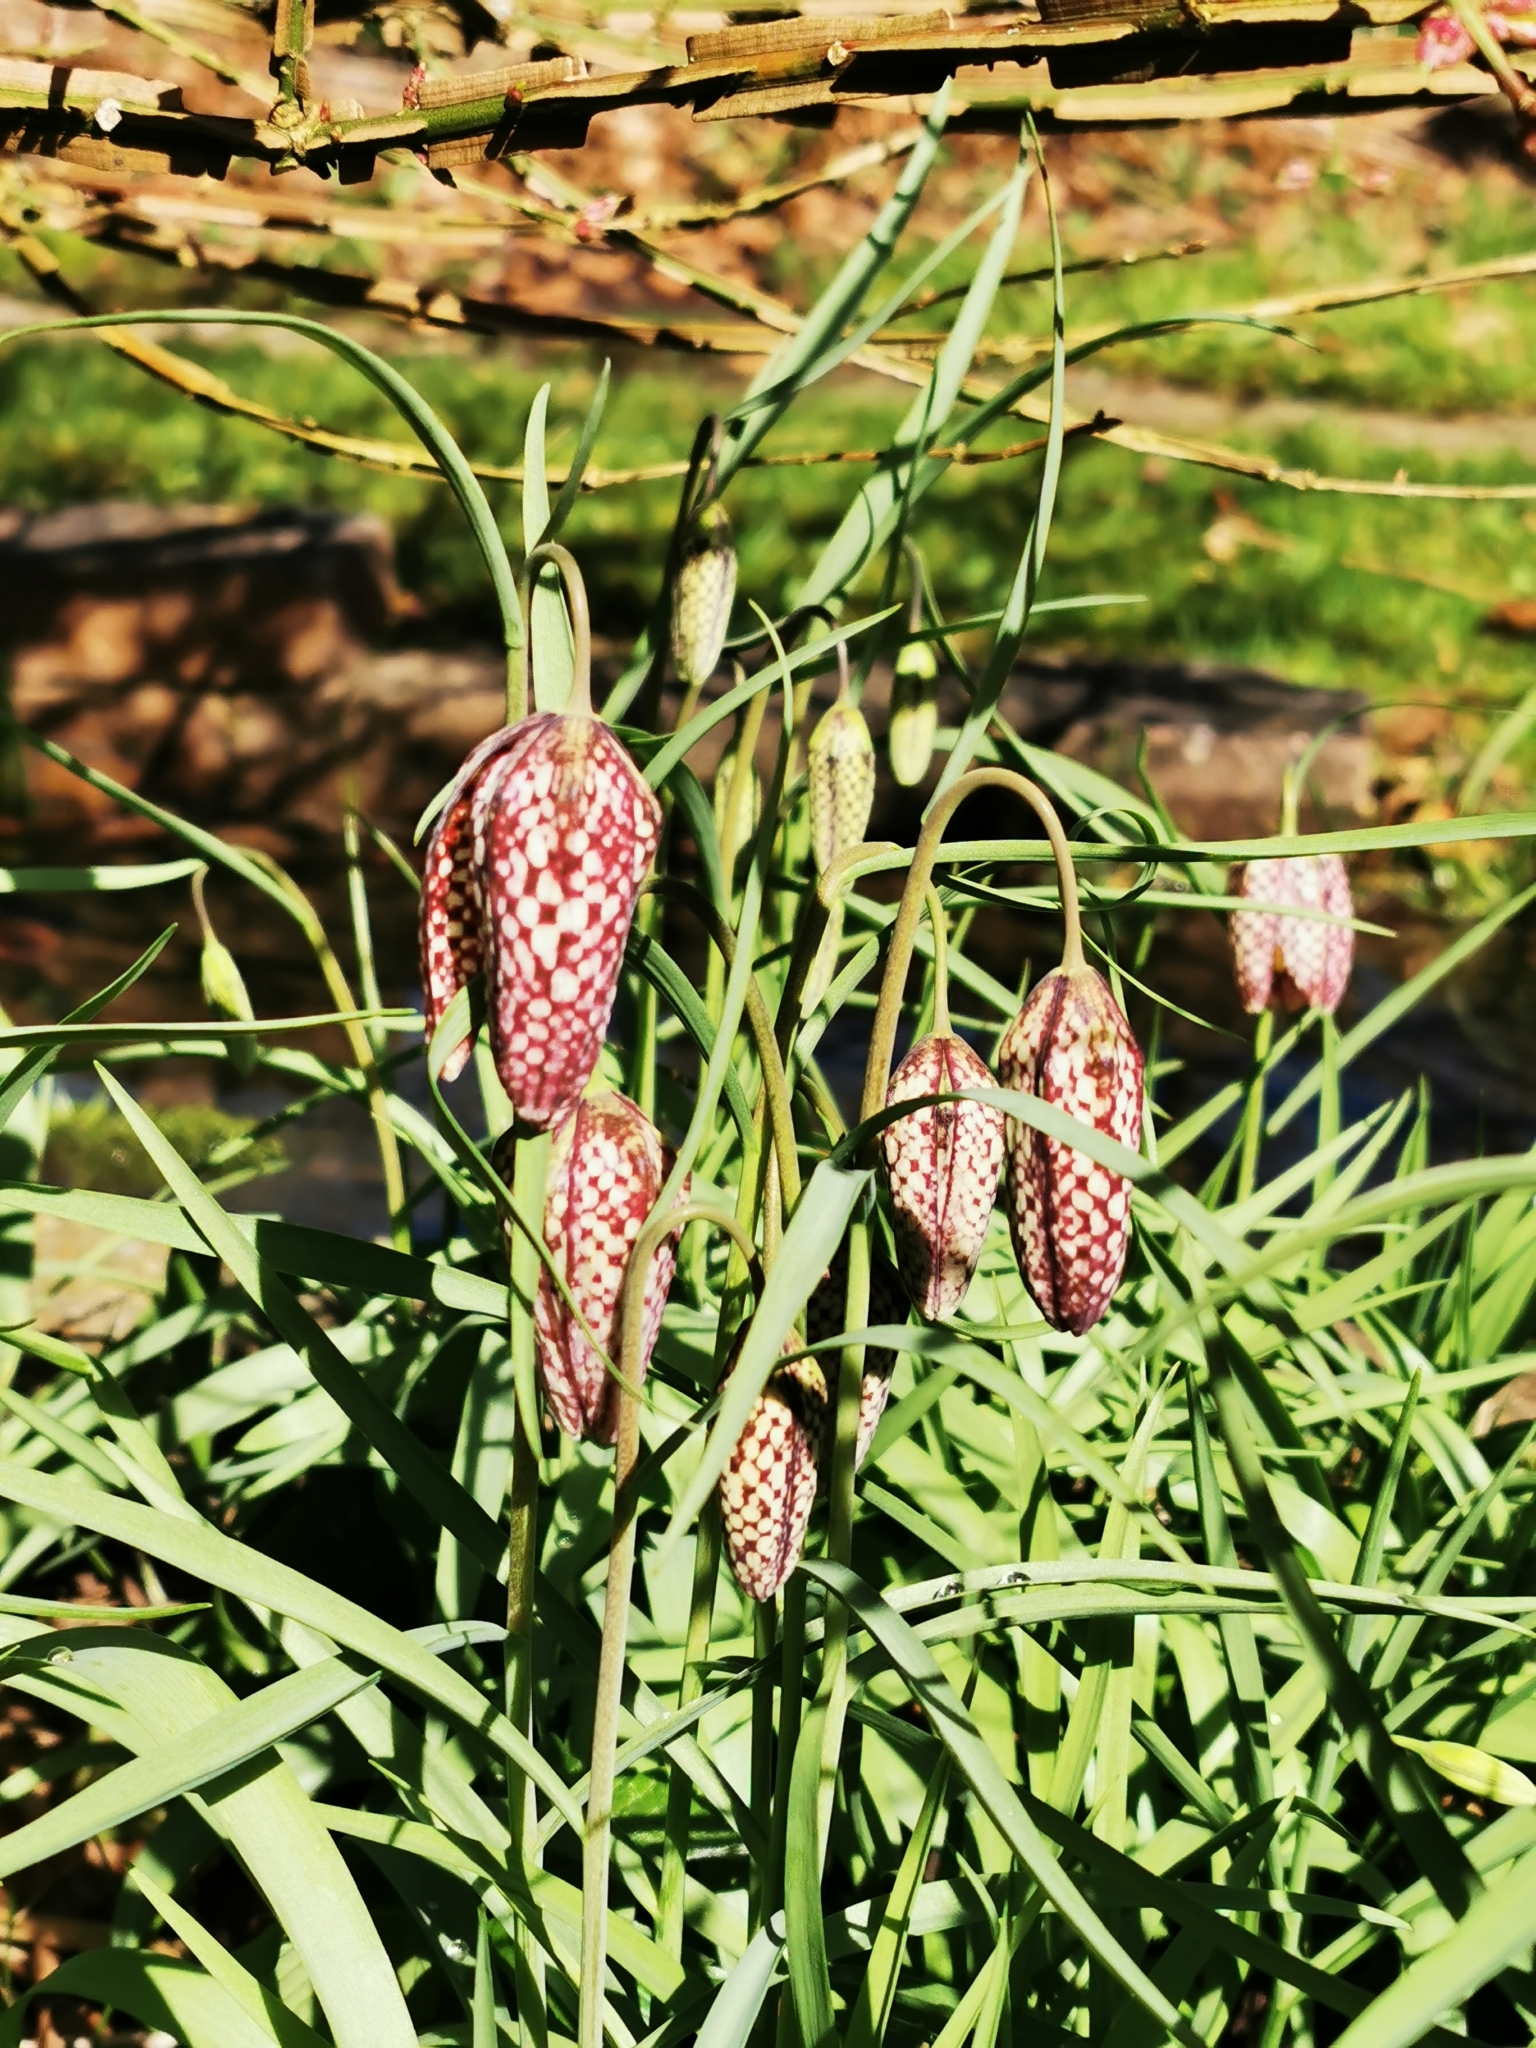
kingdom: Plantae
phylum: Tracheophyta
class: Liliopsida
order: Liliales
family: Liliaceae
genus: Fritillaria
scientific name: Fritillaria meleagris
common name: Fritillary
